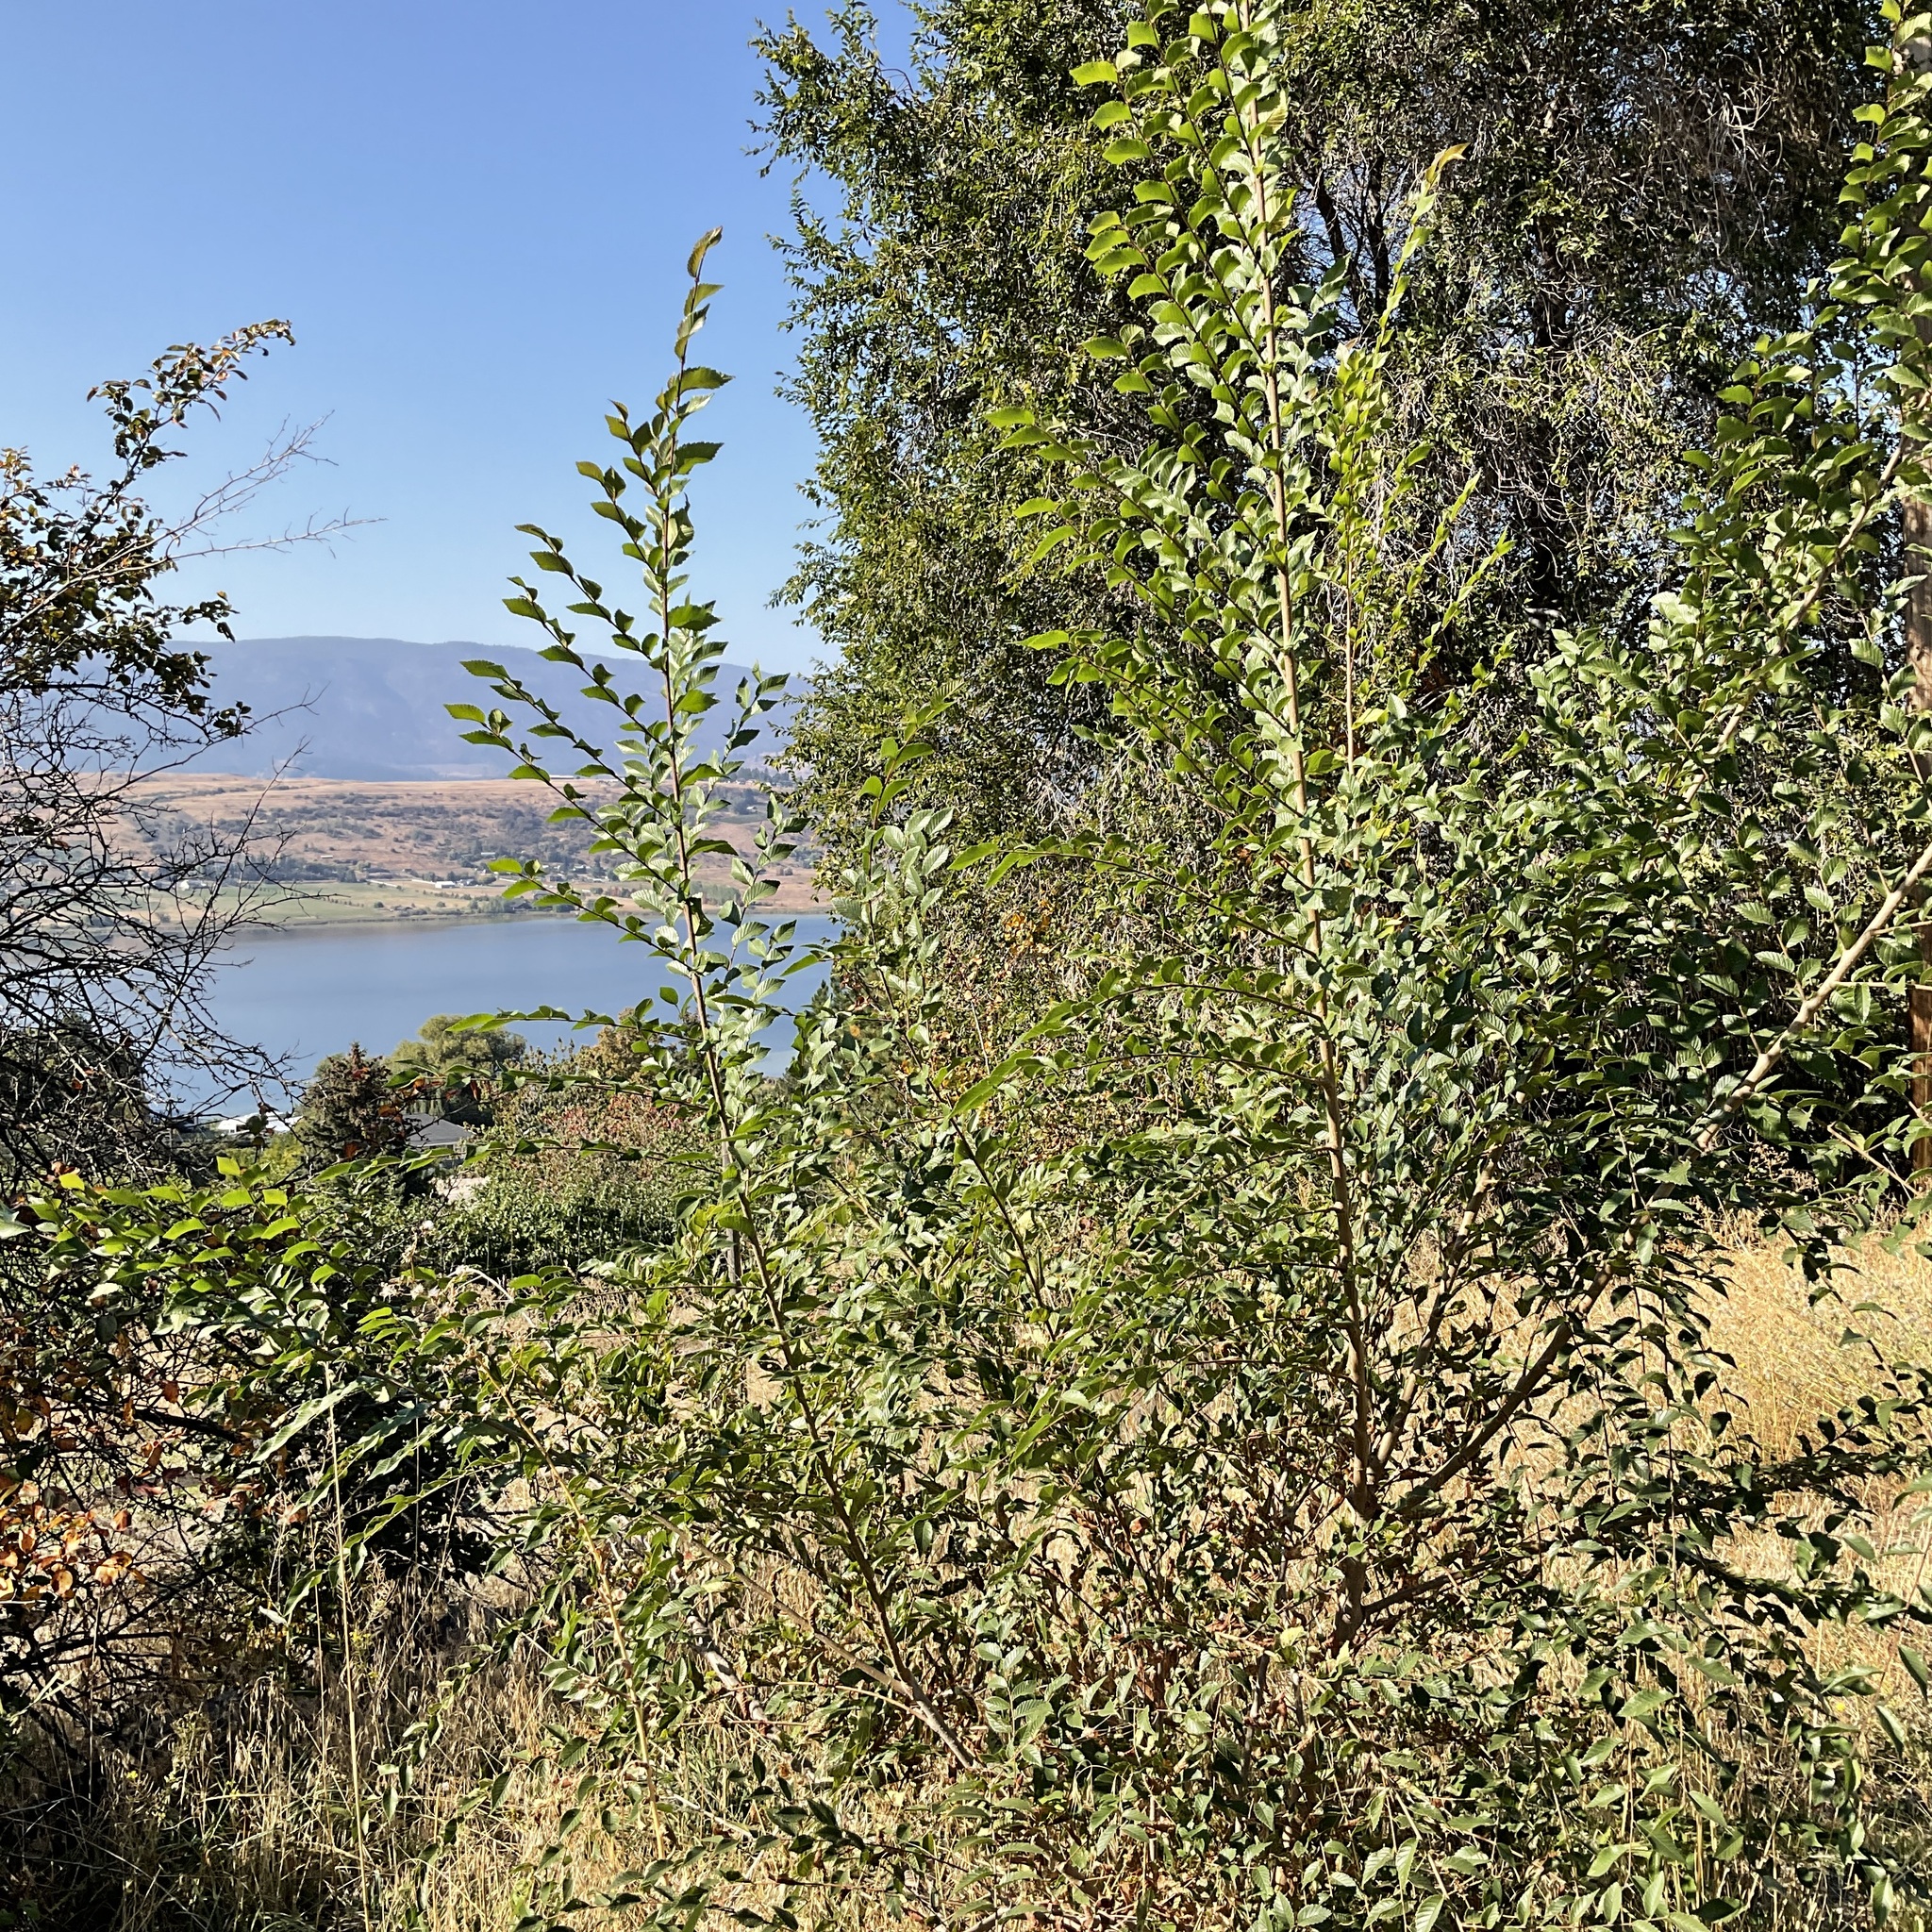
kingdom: Plantae
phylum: Tracheophyta
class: Magnoliopsida
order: Rosales
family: Ulmaceae
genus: Ulmus
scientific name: Ulmus pumila
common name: Siberian elm
